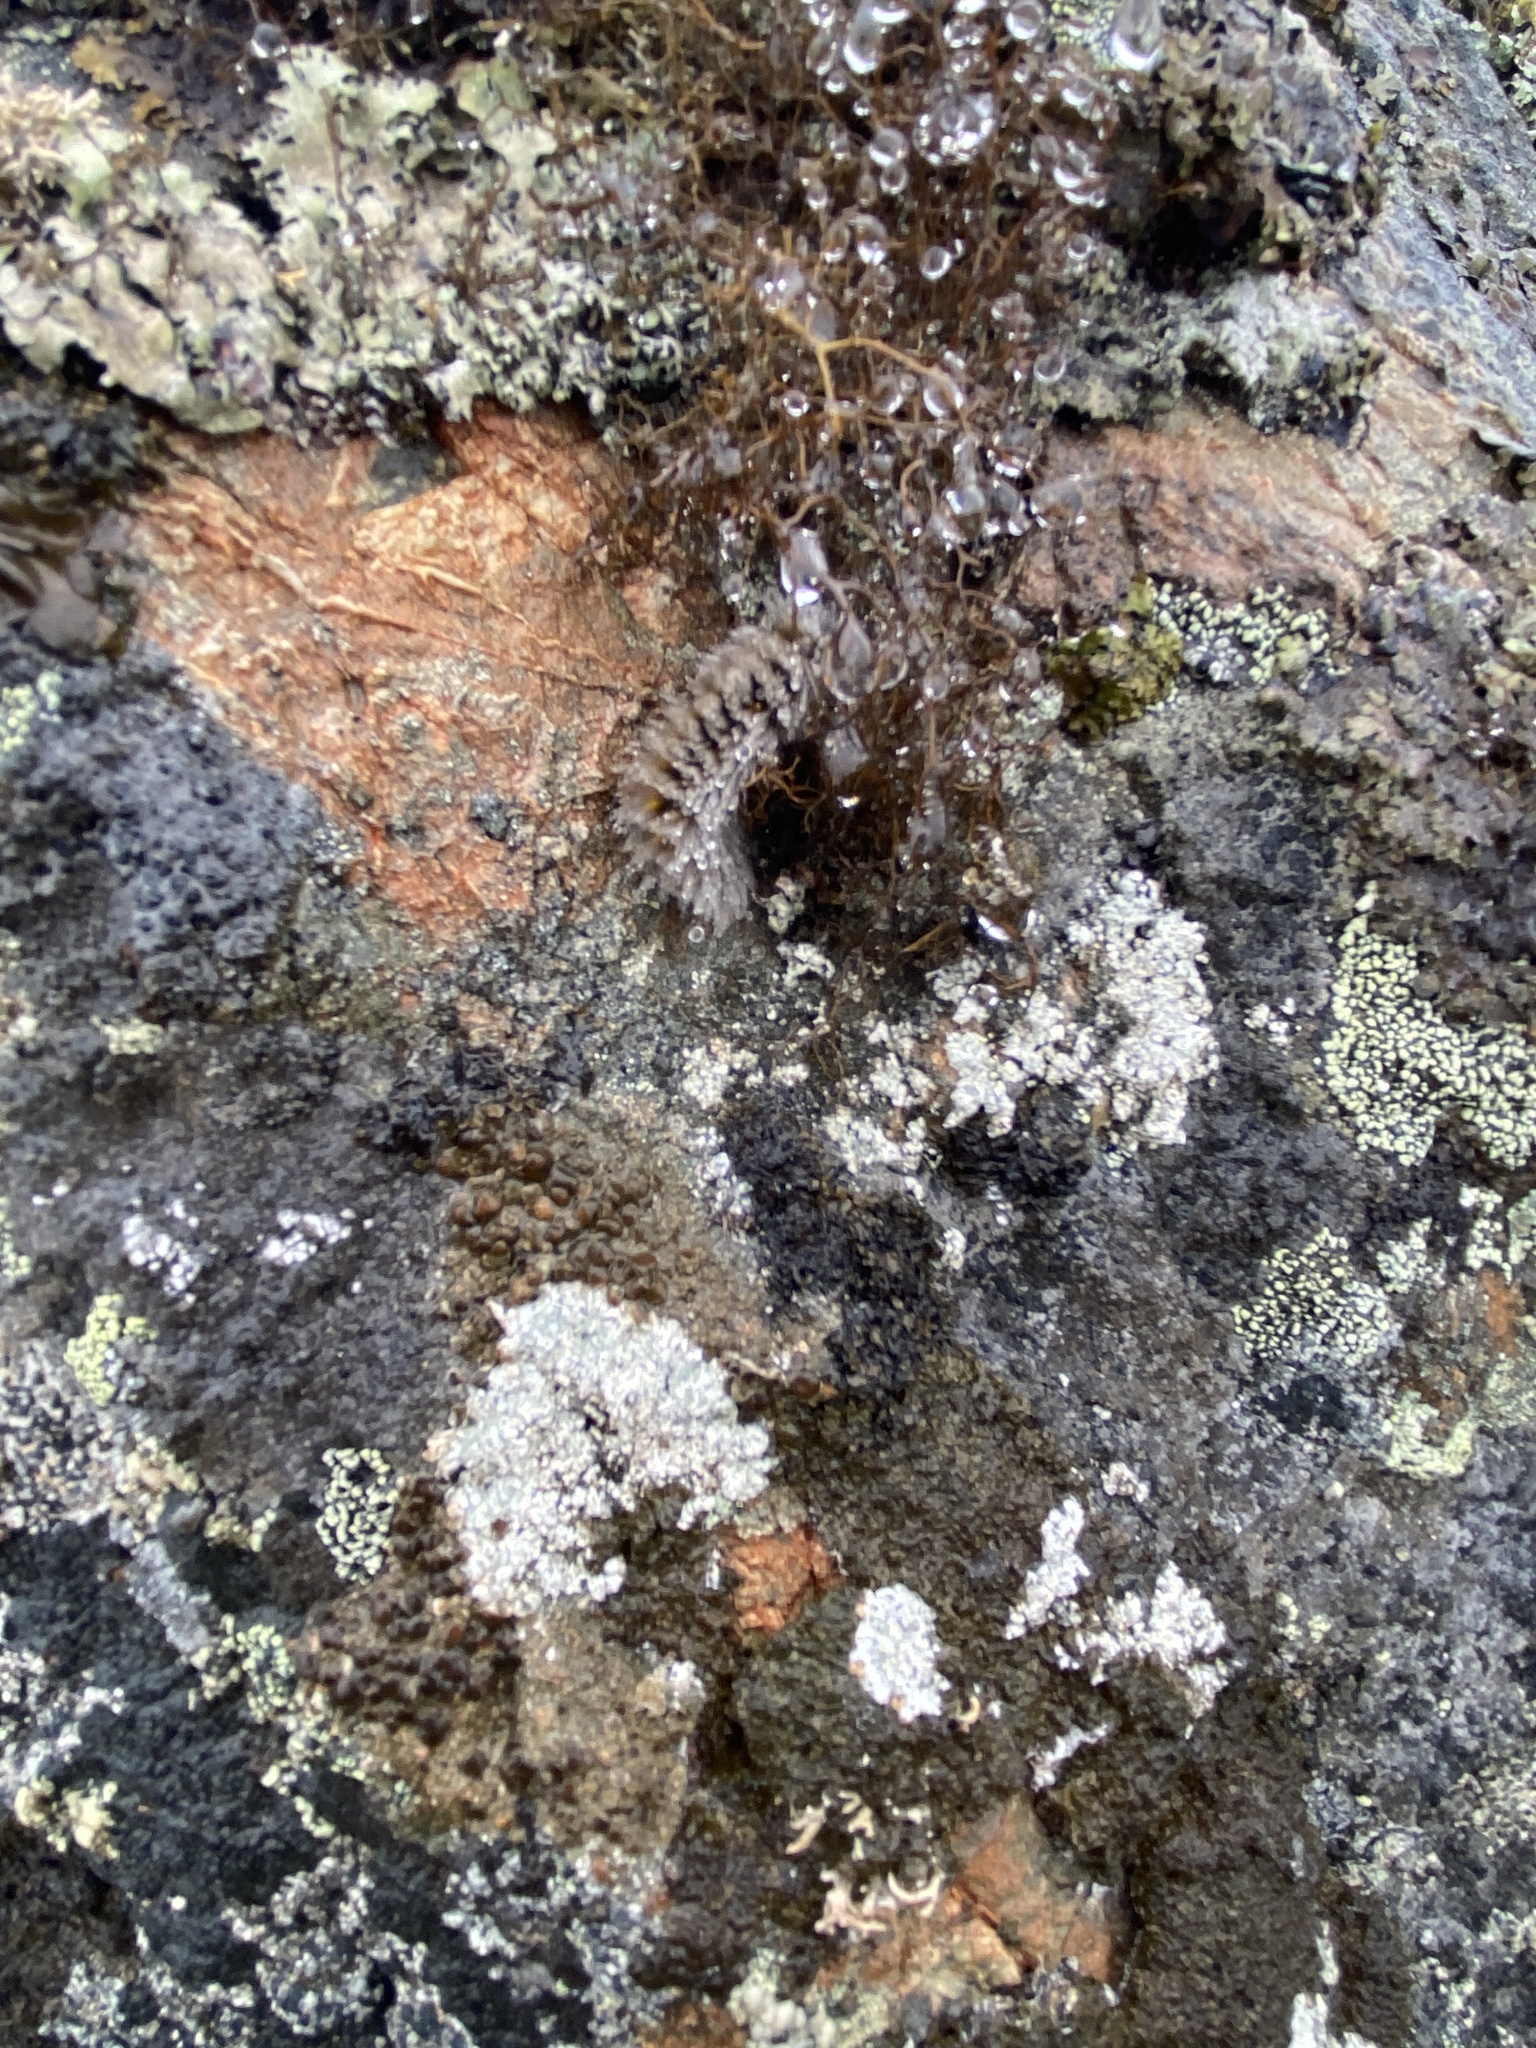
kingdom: Animalia
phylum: Arthropoda
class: Insecta
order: Lepidoptera
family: Erebidae
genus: Gynaephora
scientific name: Gynaephora rossii
